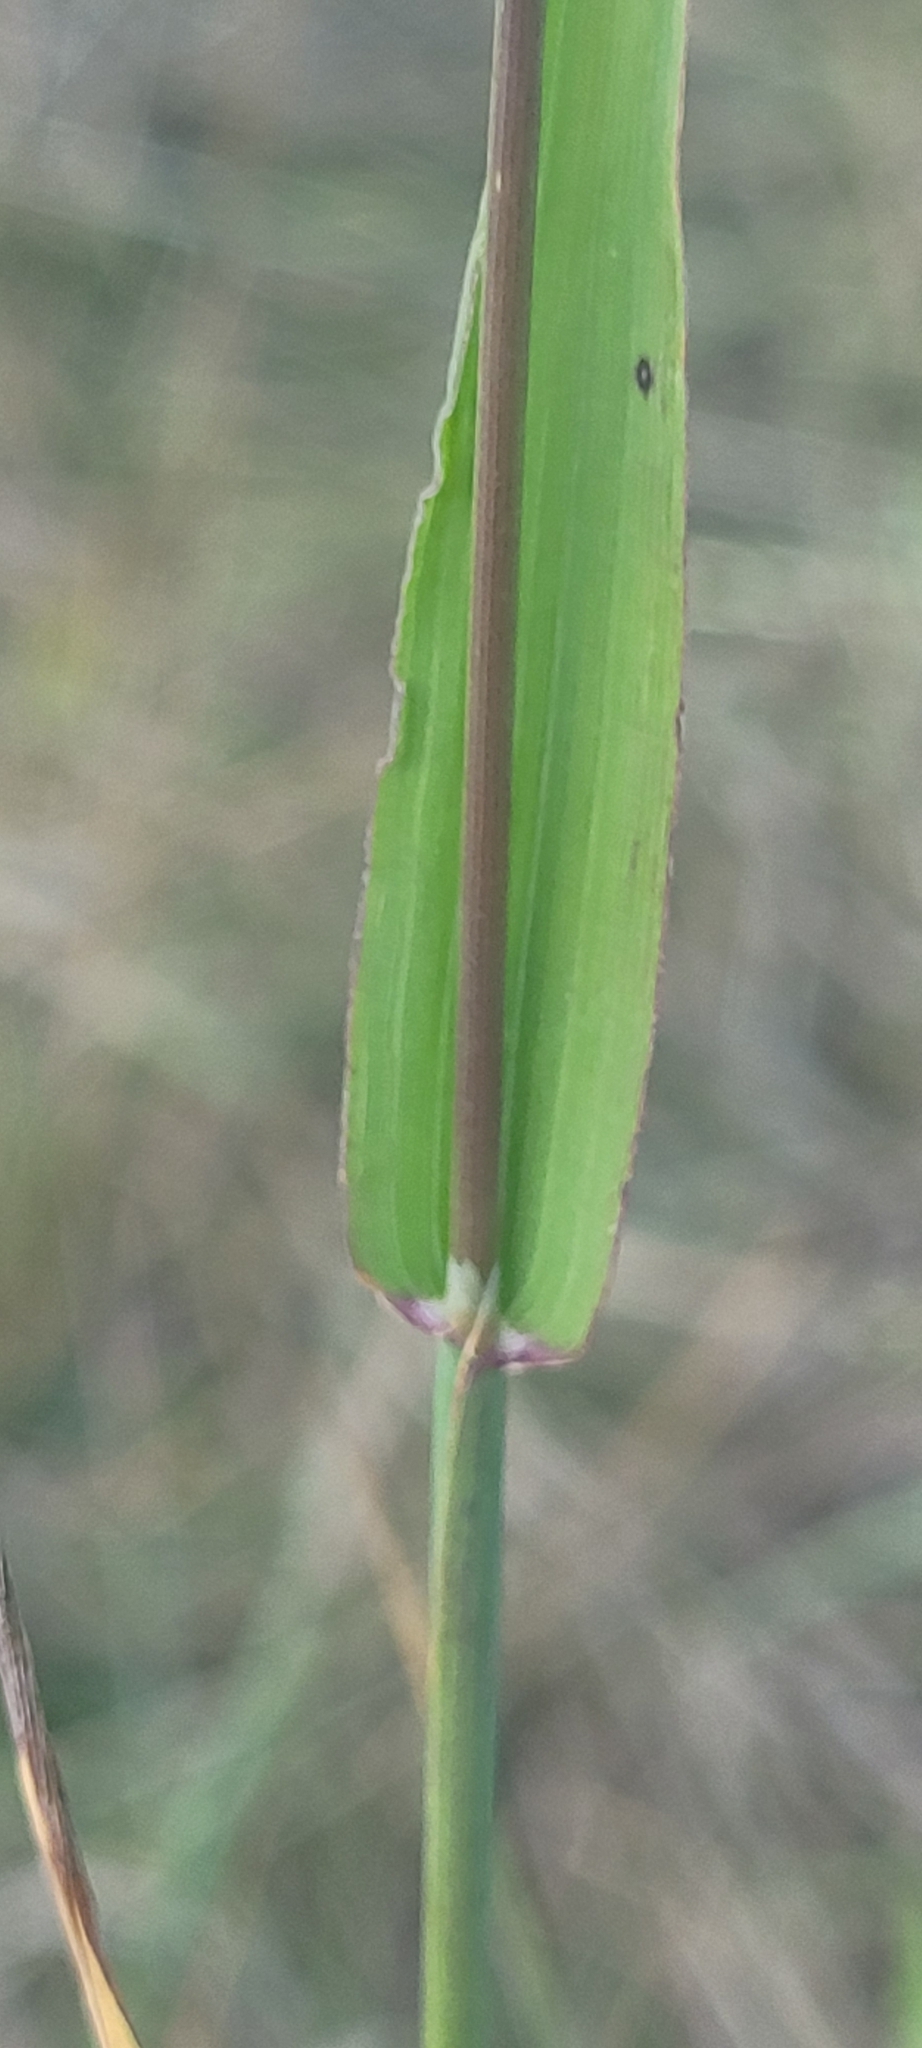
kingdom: Plantae
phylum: Tracheophyta
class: Liliopsida
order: Poales
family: Poaceae
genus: Phleum
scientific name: Phleum alpinum
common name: Alpine cat's-tail
